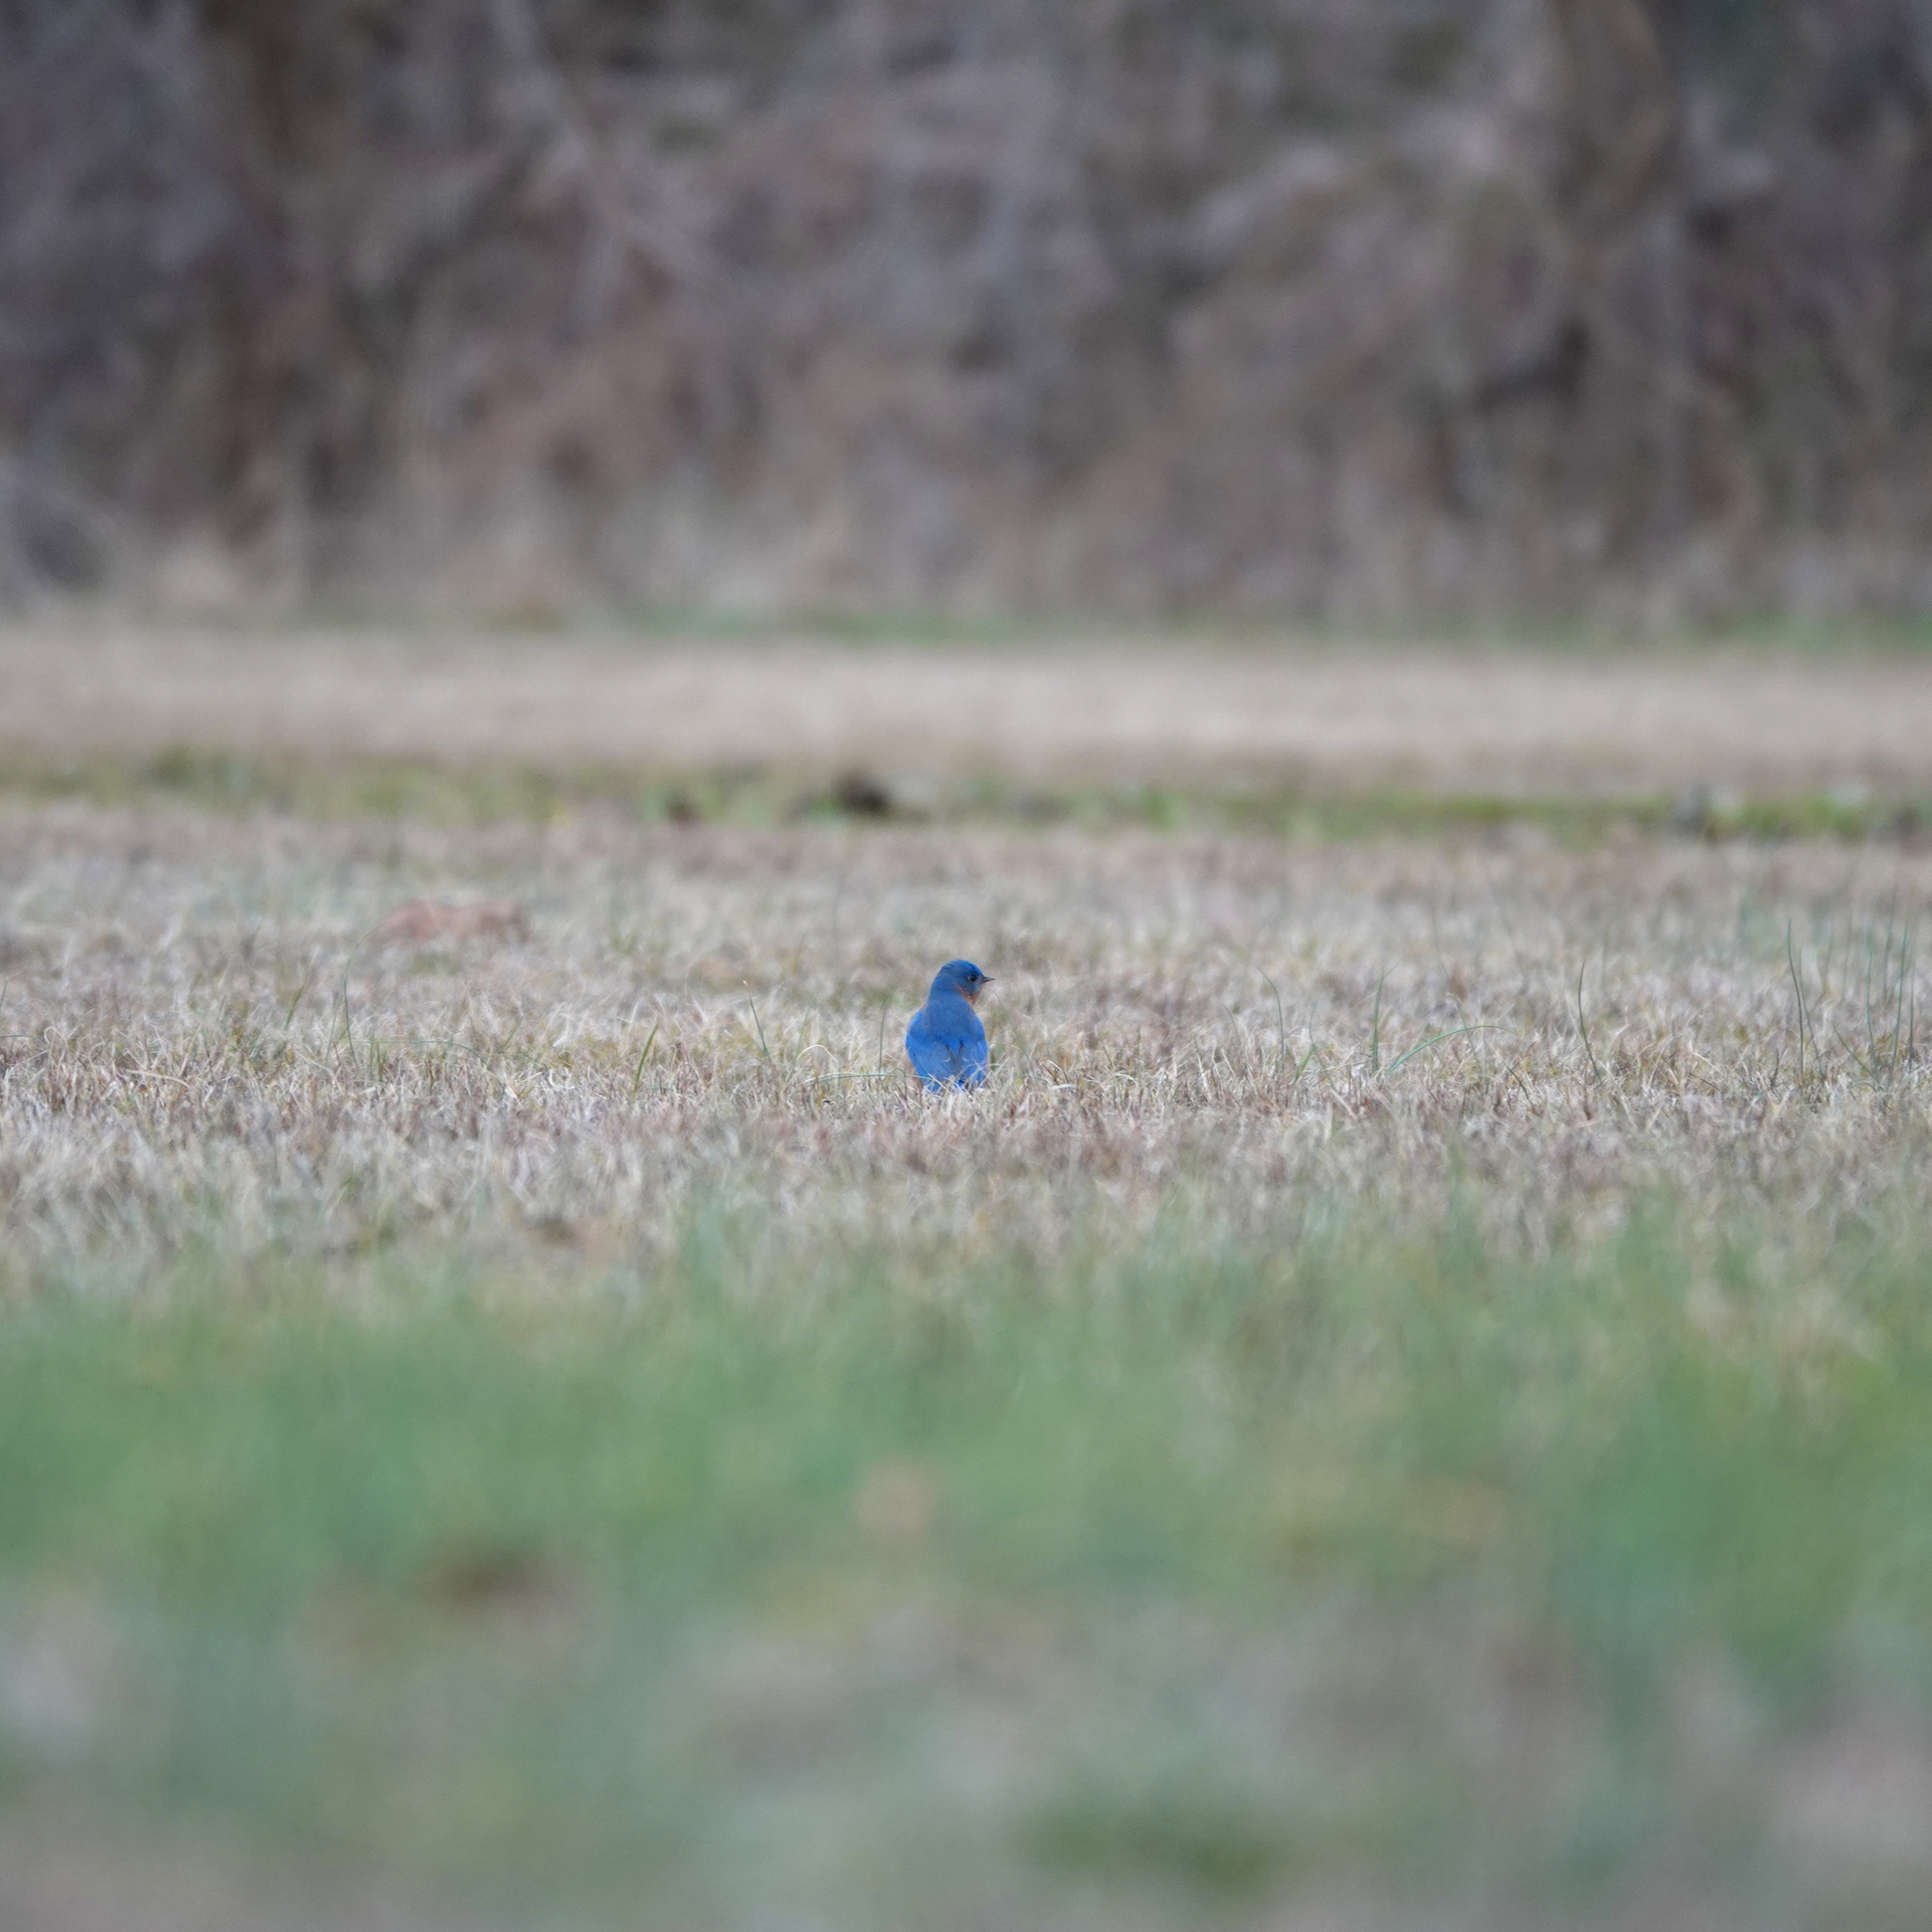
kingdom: Animalia
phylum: Chordata
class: Aves
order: Passeriformes
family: Turdidae
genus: Sialia
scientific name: Sialia sialis
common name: Eastern bluebird
